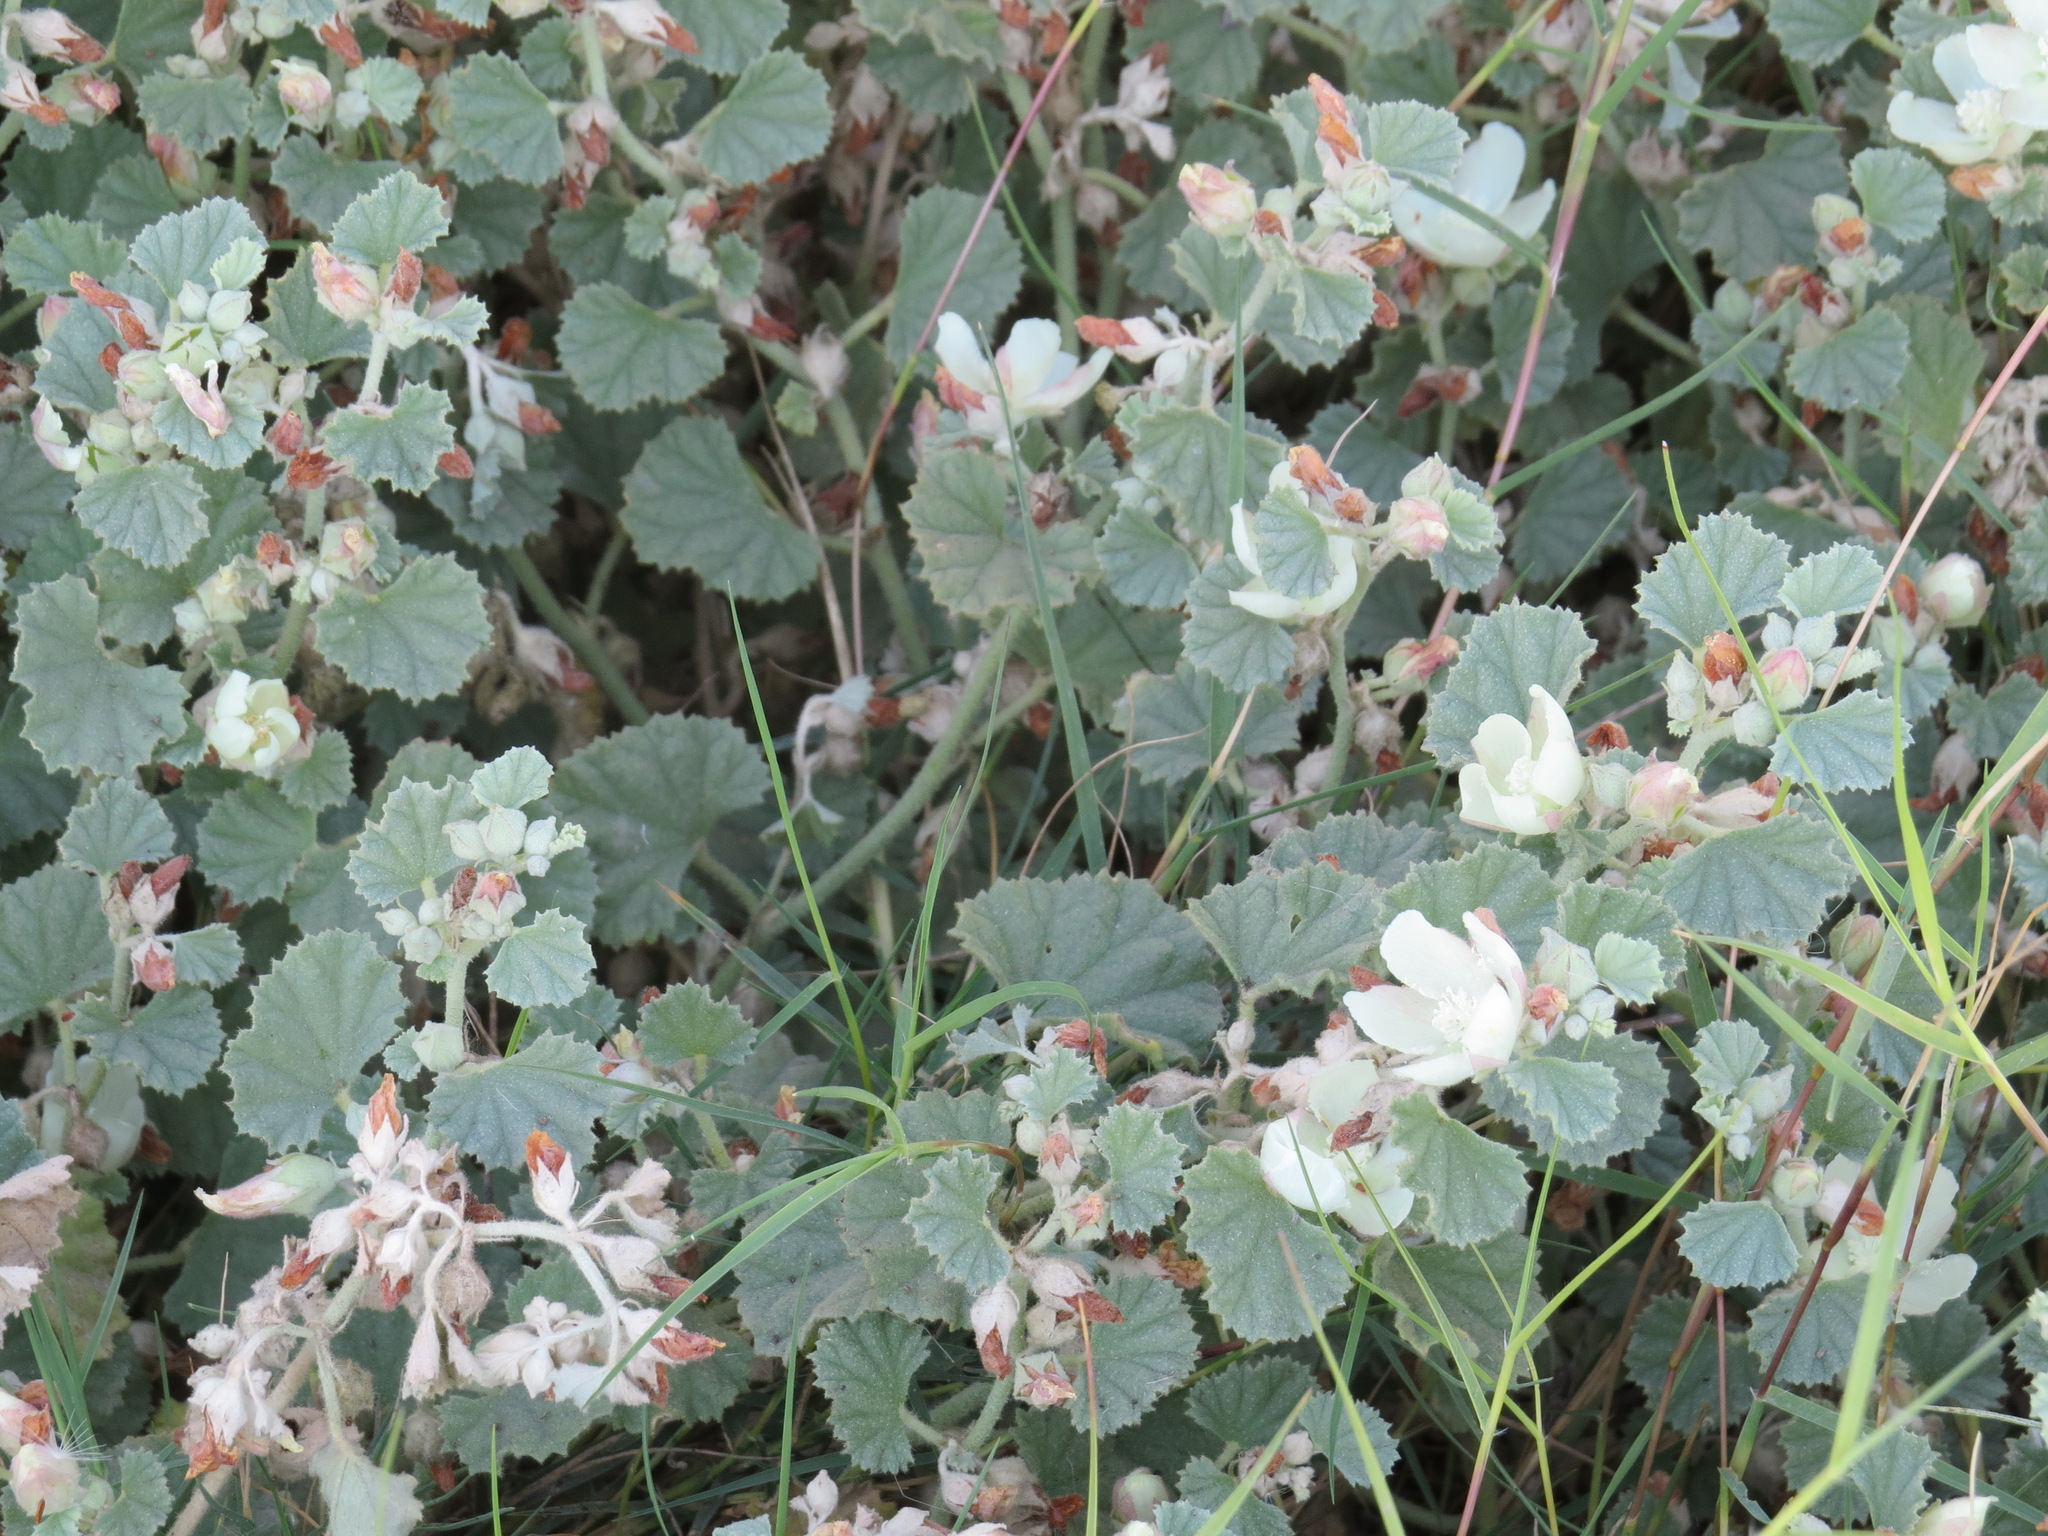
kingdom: Plantae
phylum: Tracheophyta
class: Magnoliopsida
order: Malvales
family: Malvaceae
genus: Malvella
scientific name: Malvella leprosa
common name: Alkali-mallow
